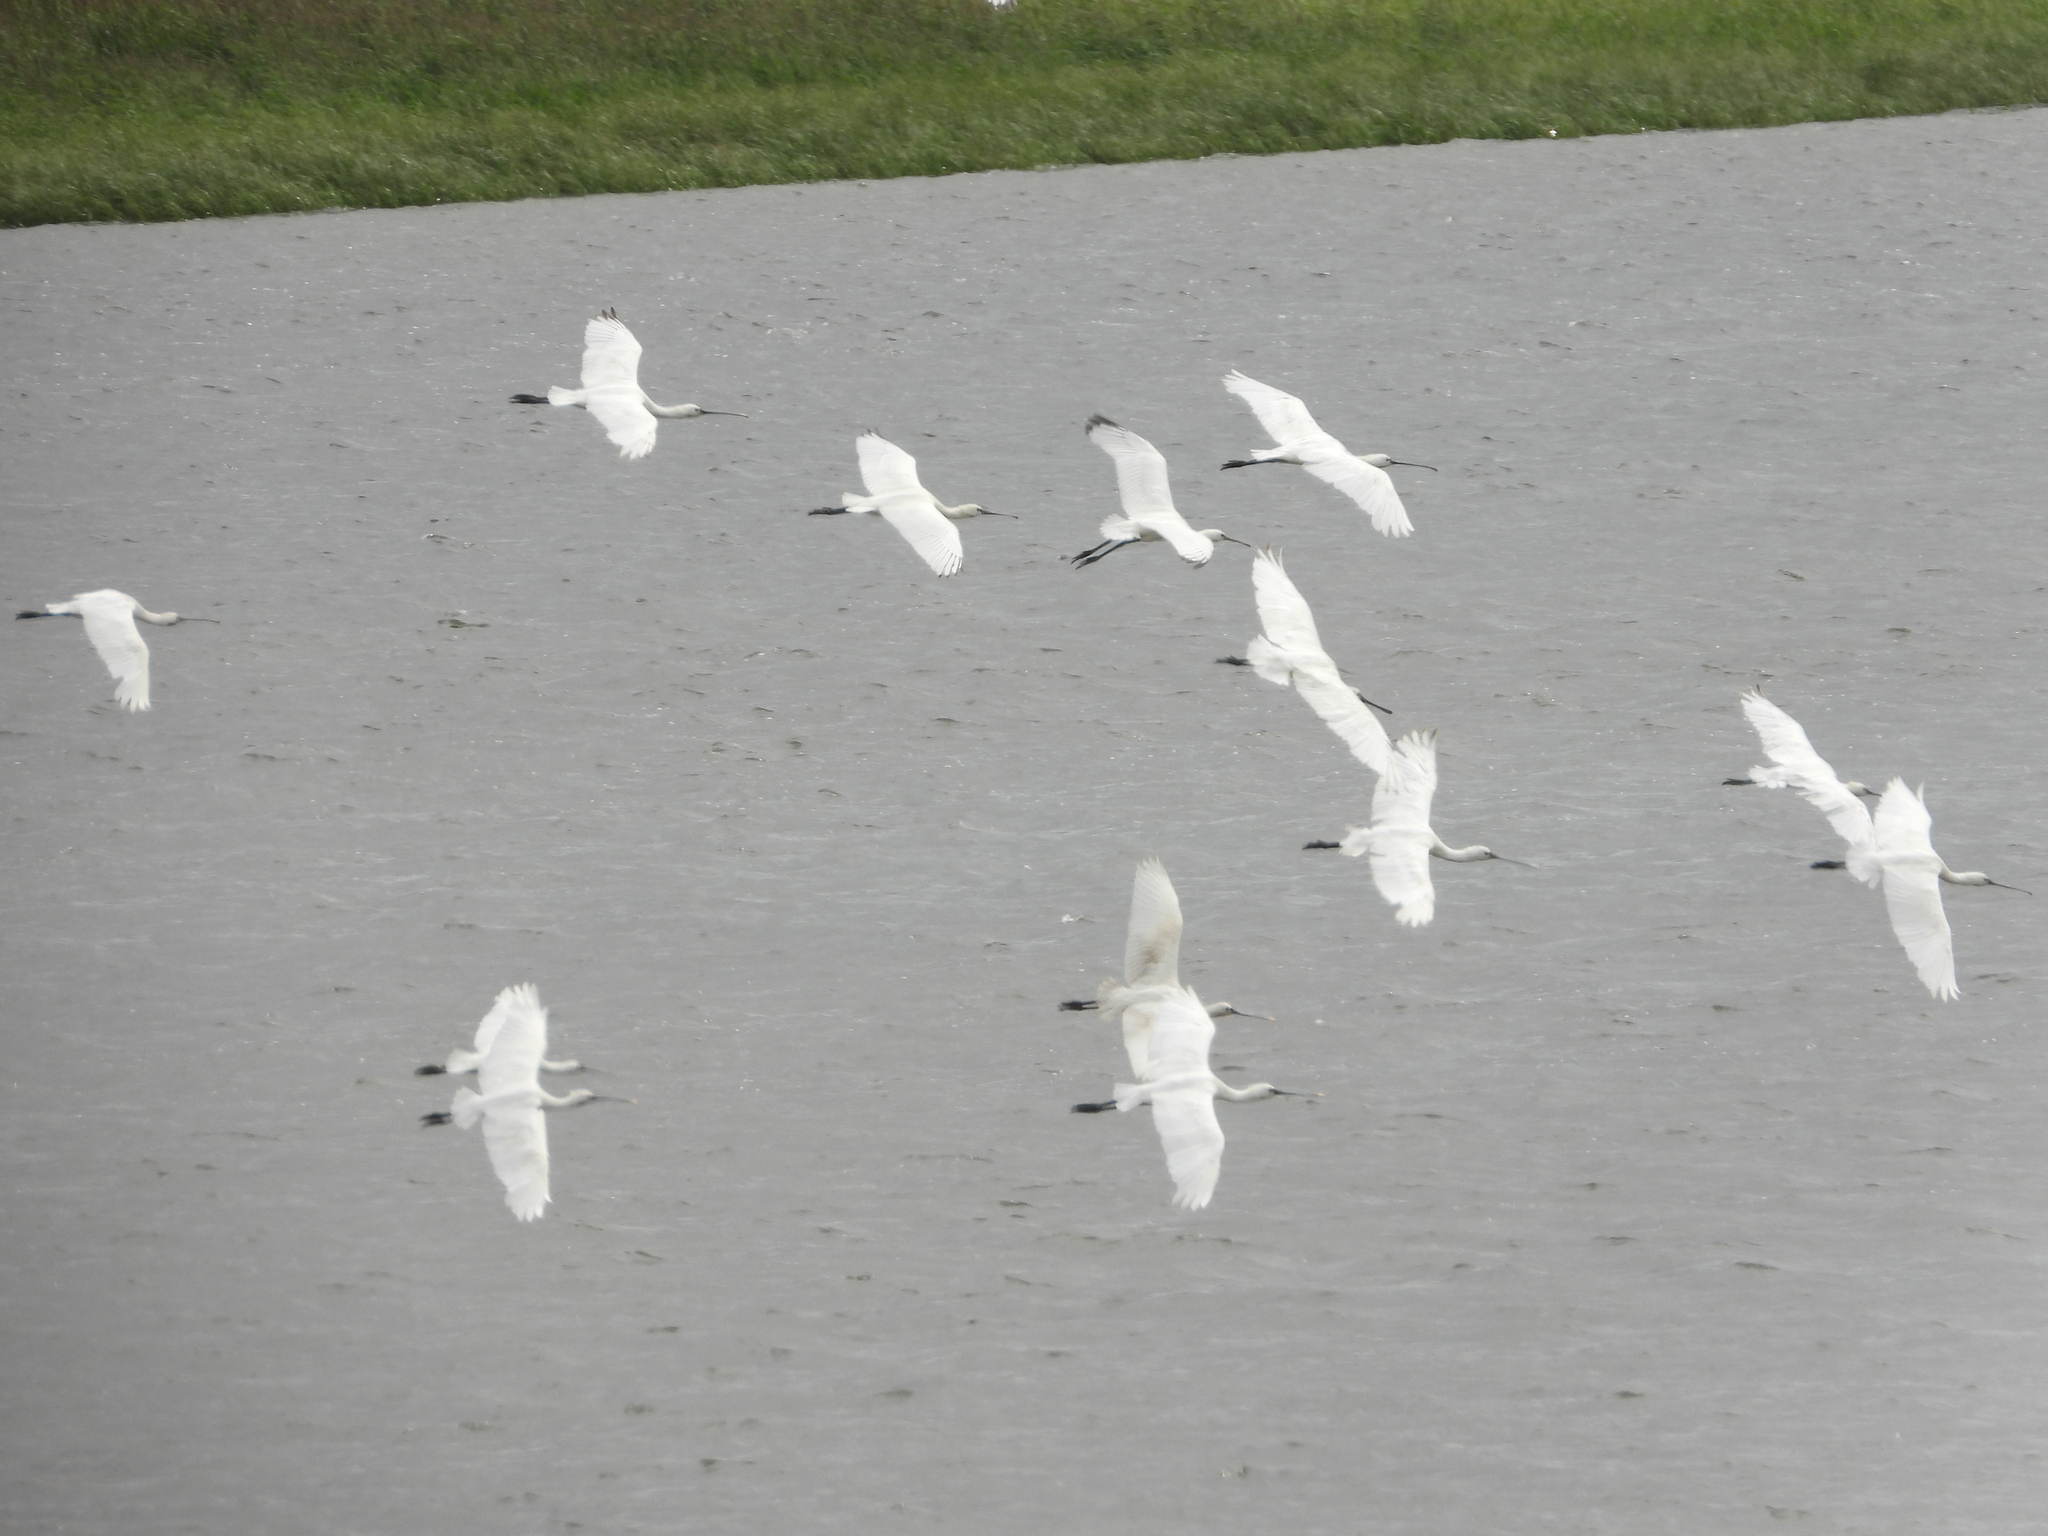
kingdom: Animalia
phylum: Chordata
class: Aves
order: Pelecaniformes
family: Threskiornithidae
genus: Platalea
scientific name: Platalea leucorodia
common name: Eurasian spoonbill
